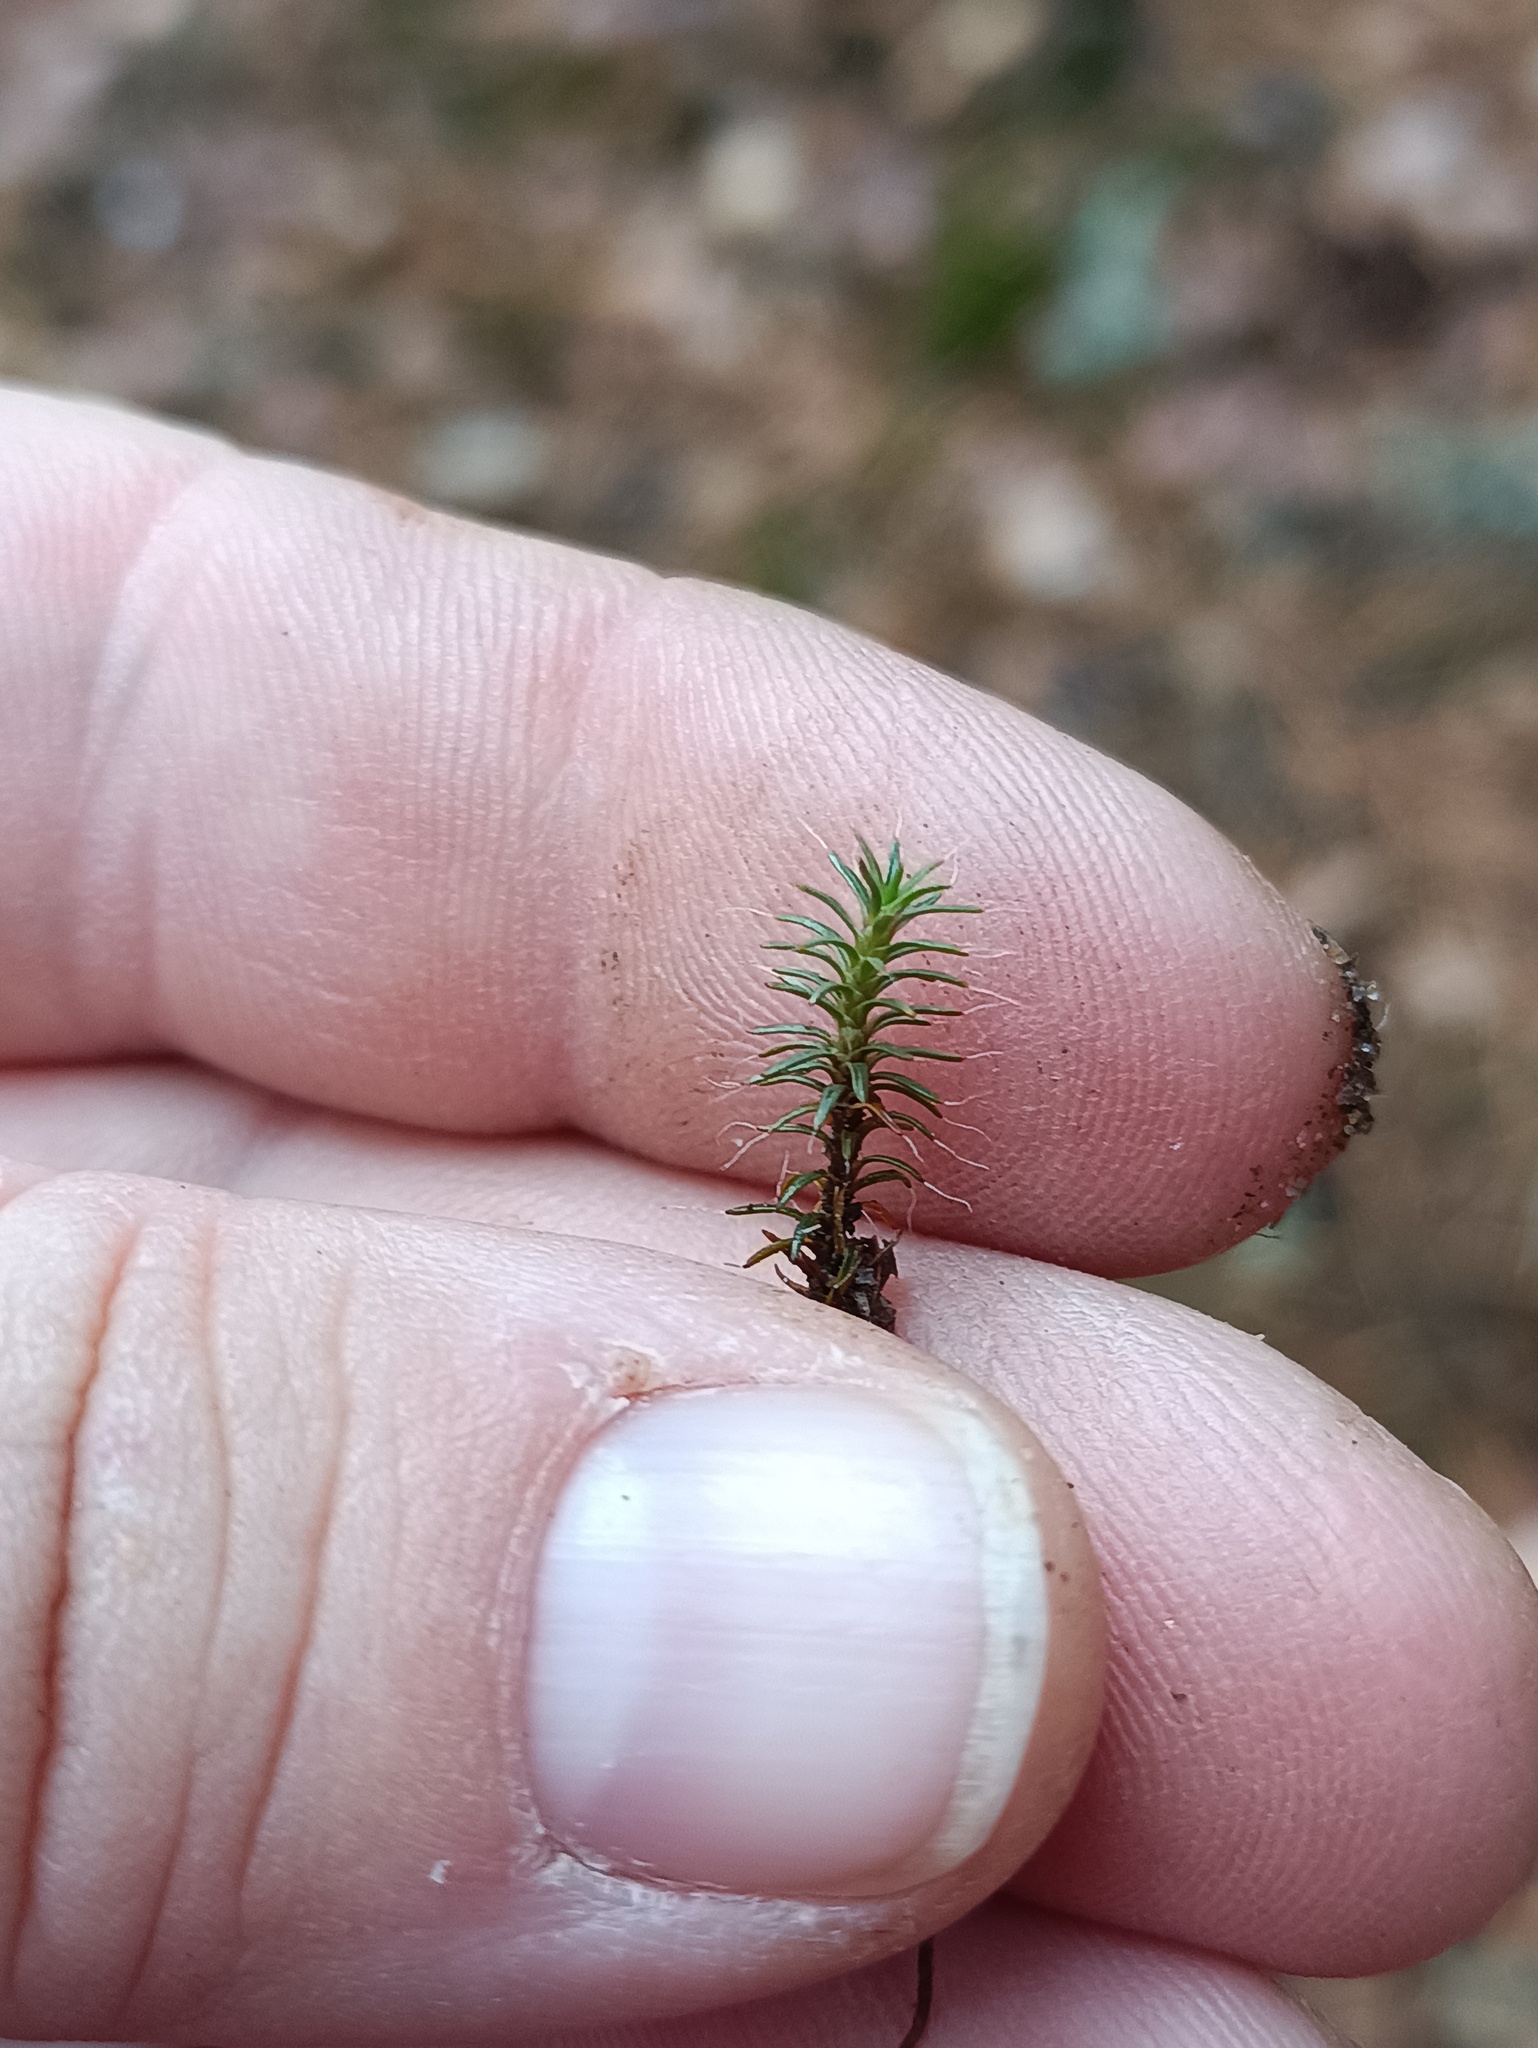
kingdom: Plantae
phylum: Bryophyta
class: Polytrichopsida
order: Polytrichales
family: Polytrichaceae
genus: Polytrichum
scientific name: Polytrichum piliferum
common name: Bristly haircap
